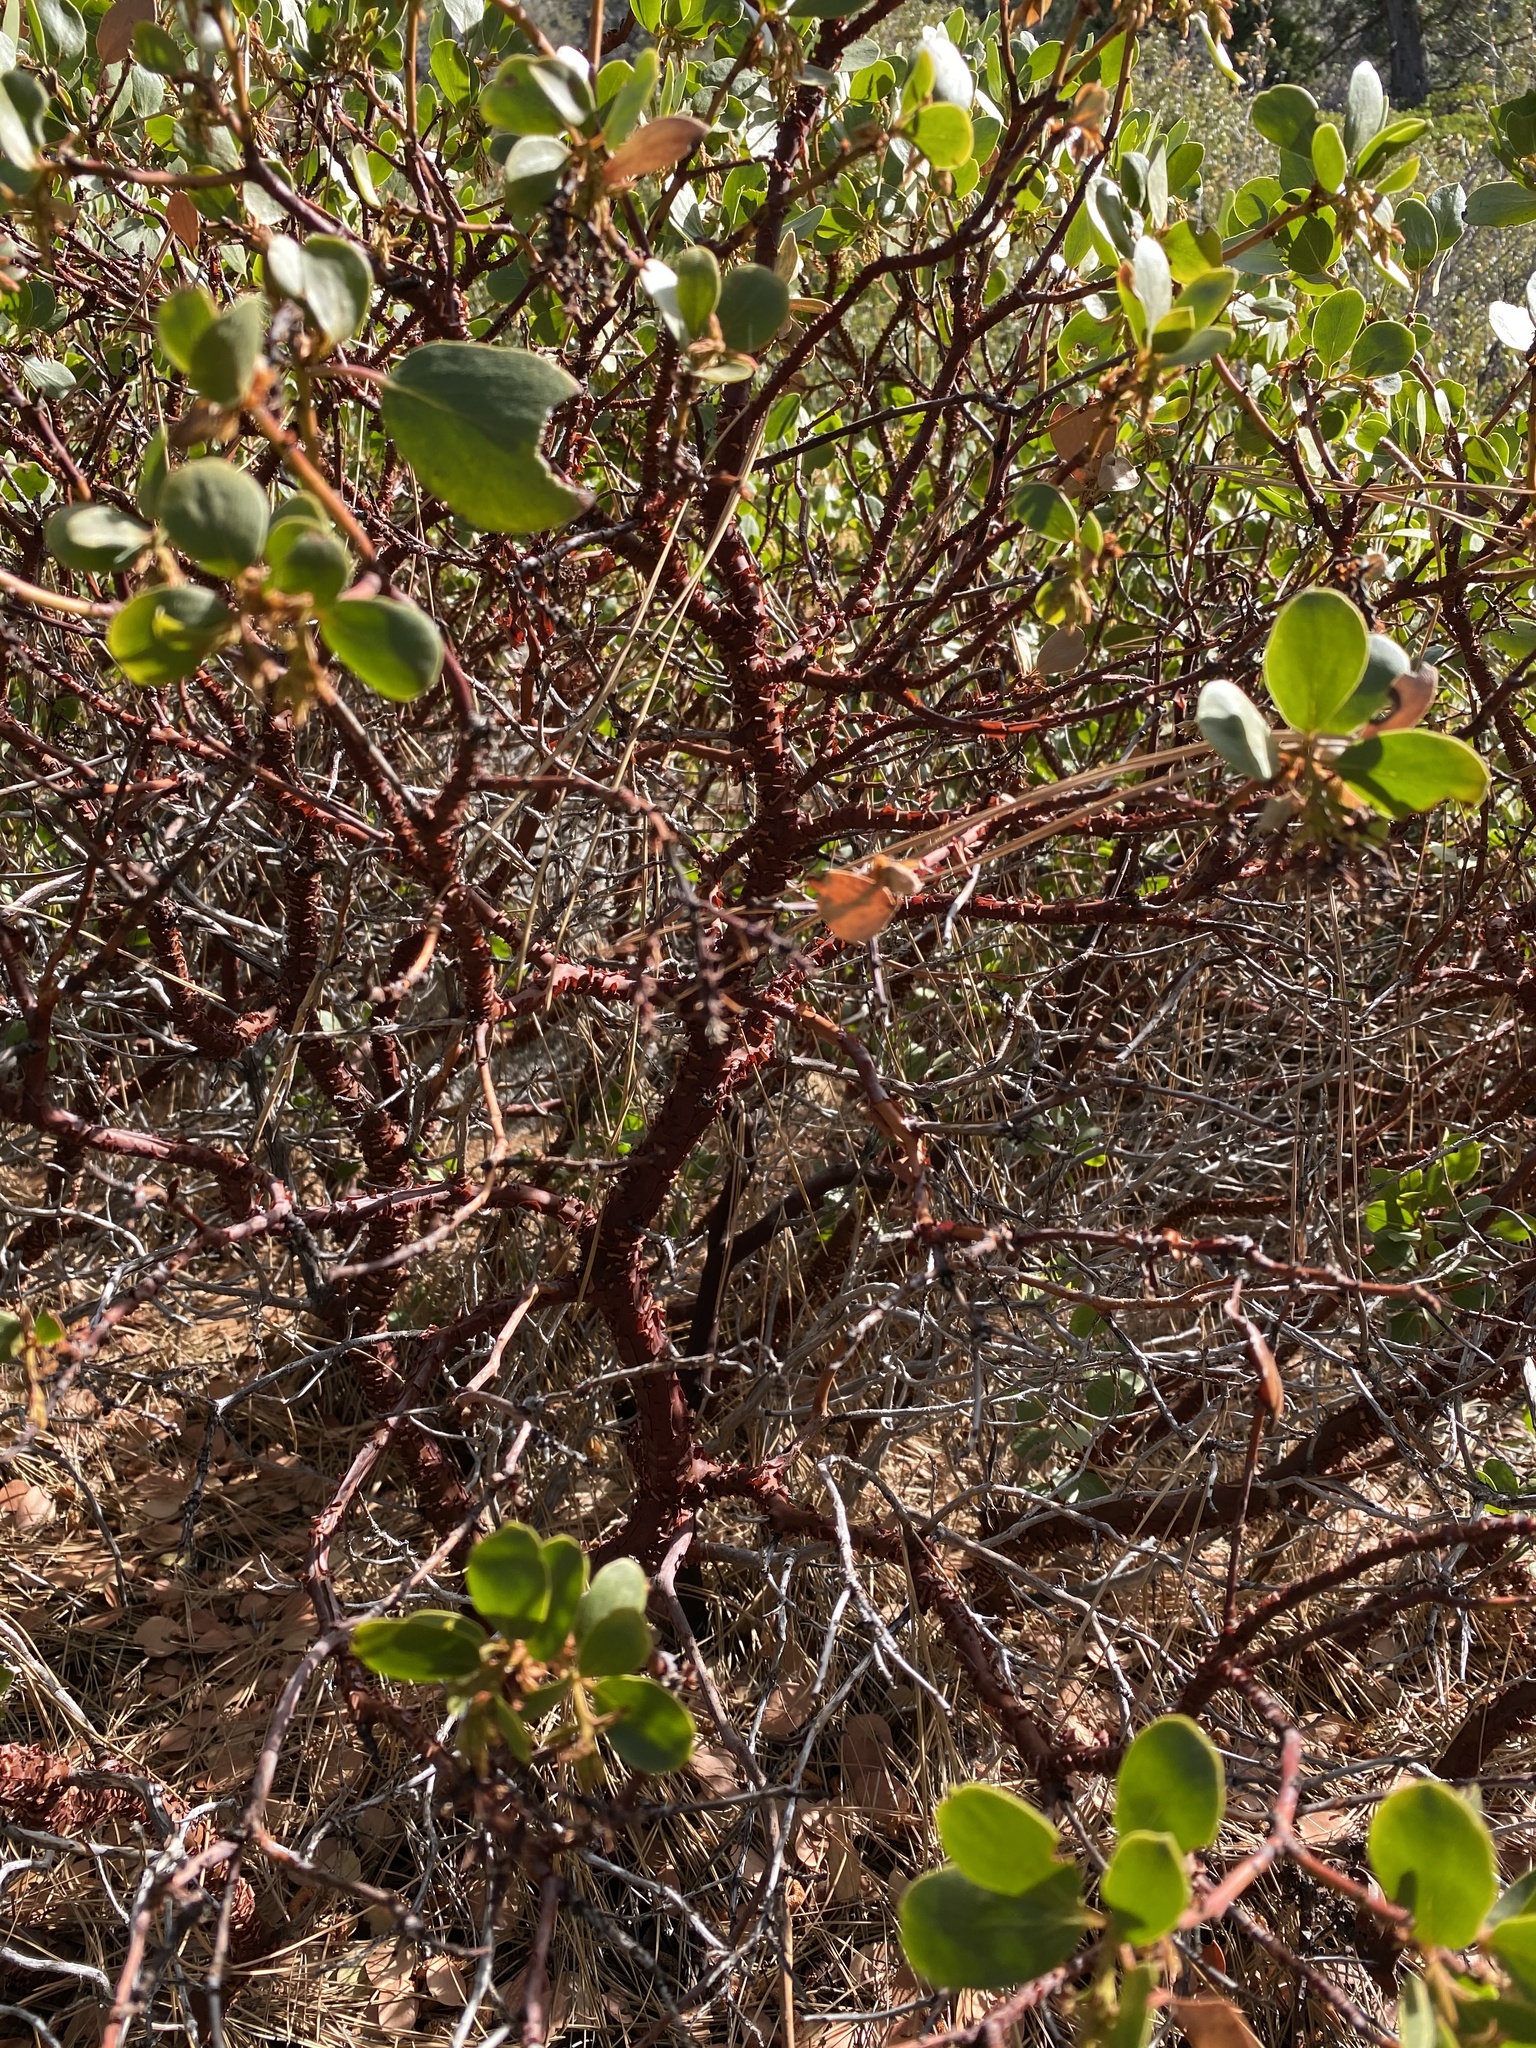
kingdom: Plantae
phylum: Tracheophyta
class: Magnoliopsida
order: Ericales
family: Ericaceae
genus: Arctostaphylos
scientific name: Arctostaphylos patula
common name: Green-leaf manzanita
